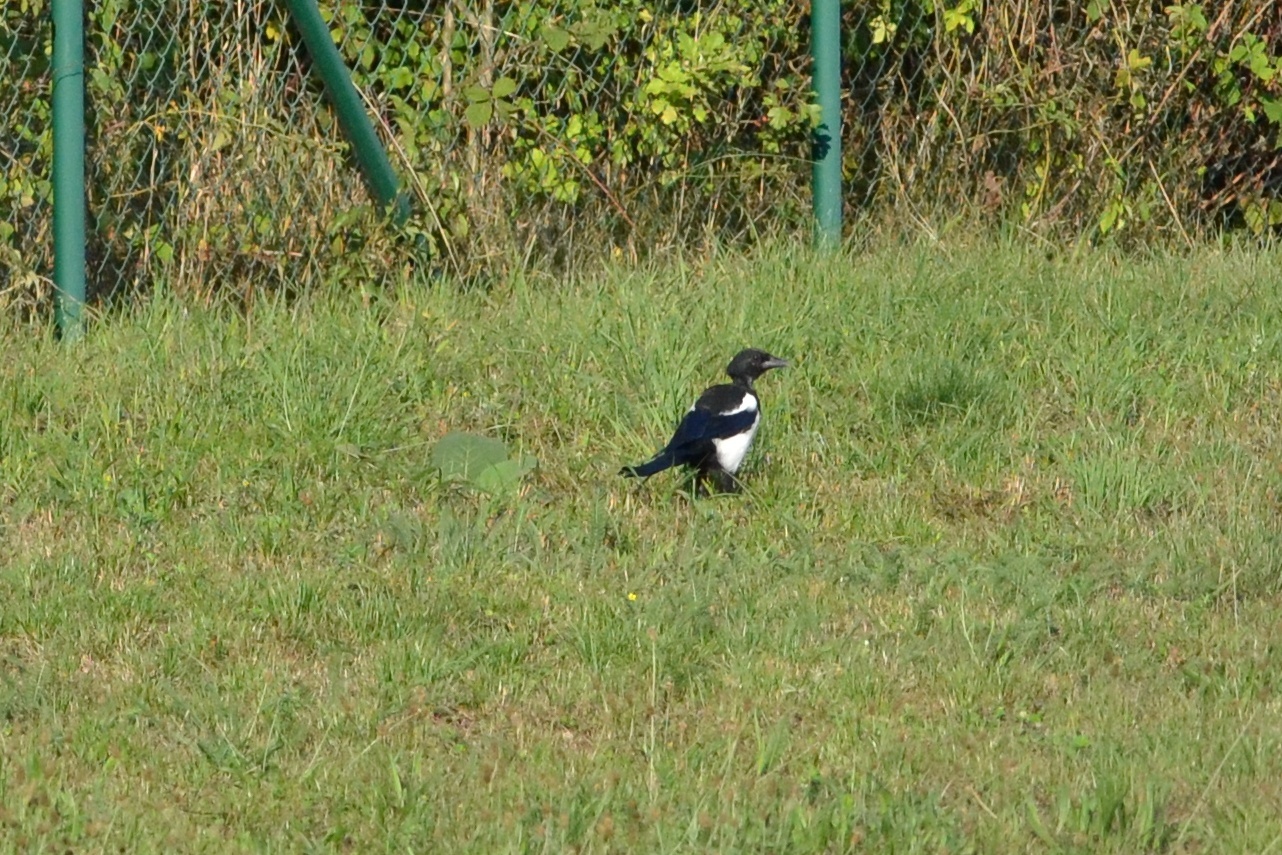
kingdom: Animalia
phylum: Chordata
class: Aves
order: Passeriformes
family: Corvidae
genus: Pica
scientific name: Pica pica
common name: Eurasian magpie
